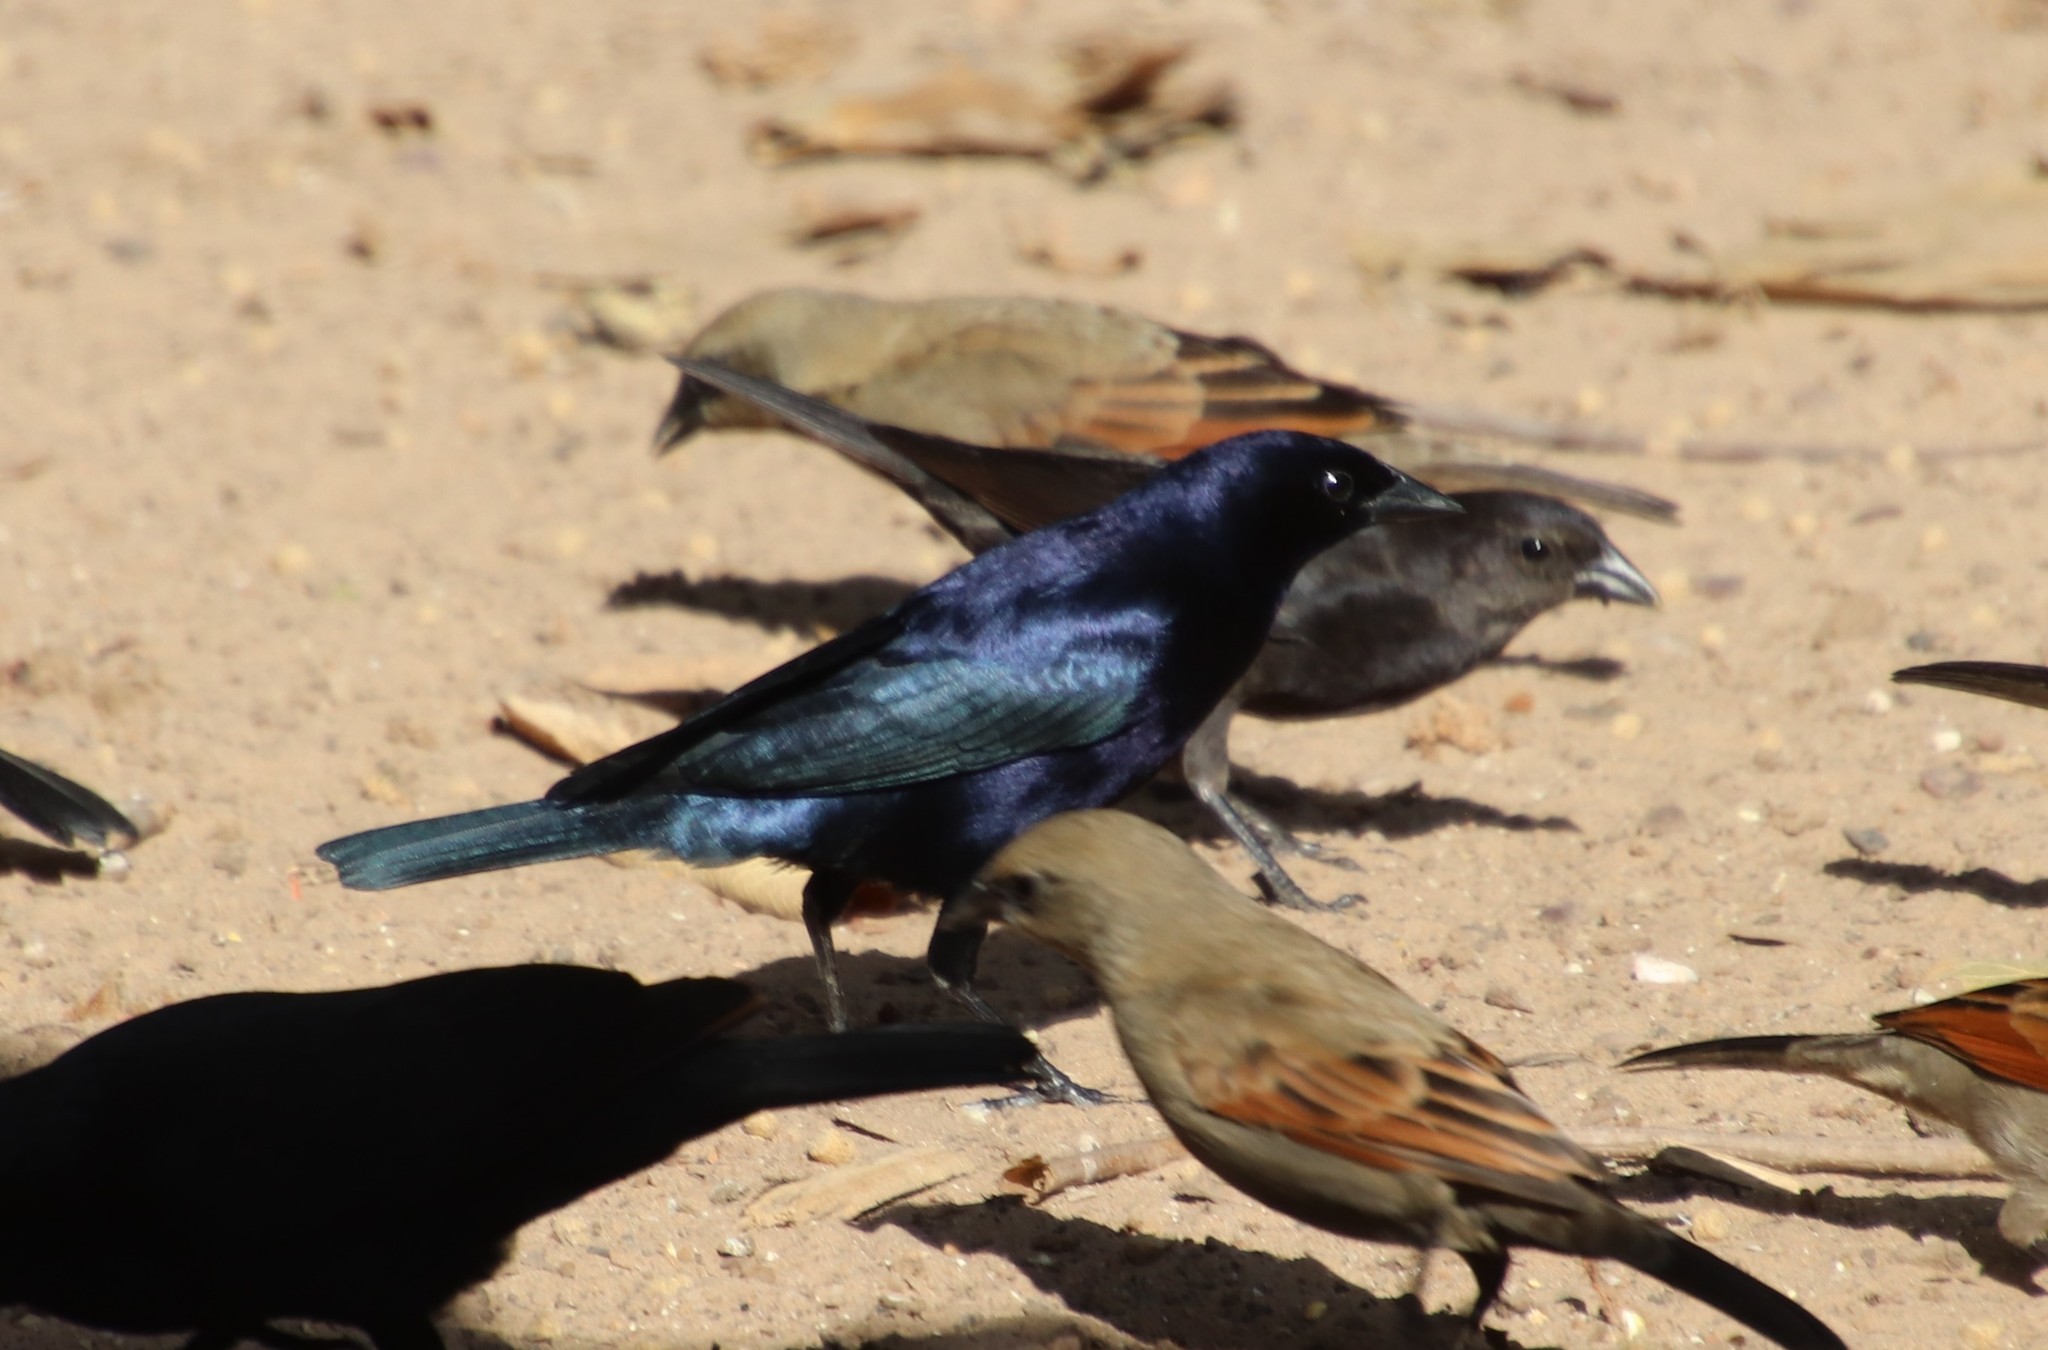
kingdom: Animalia
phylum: Chordata
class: Aves
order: Passeriformes
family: Icteridae
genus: Molothrus
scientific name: Molothrus bonariensis
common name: Shiny cowbird
